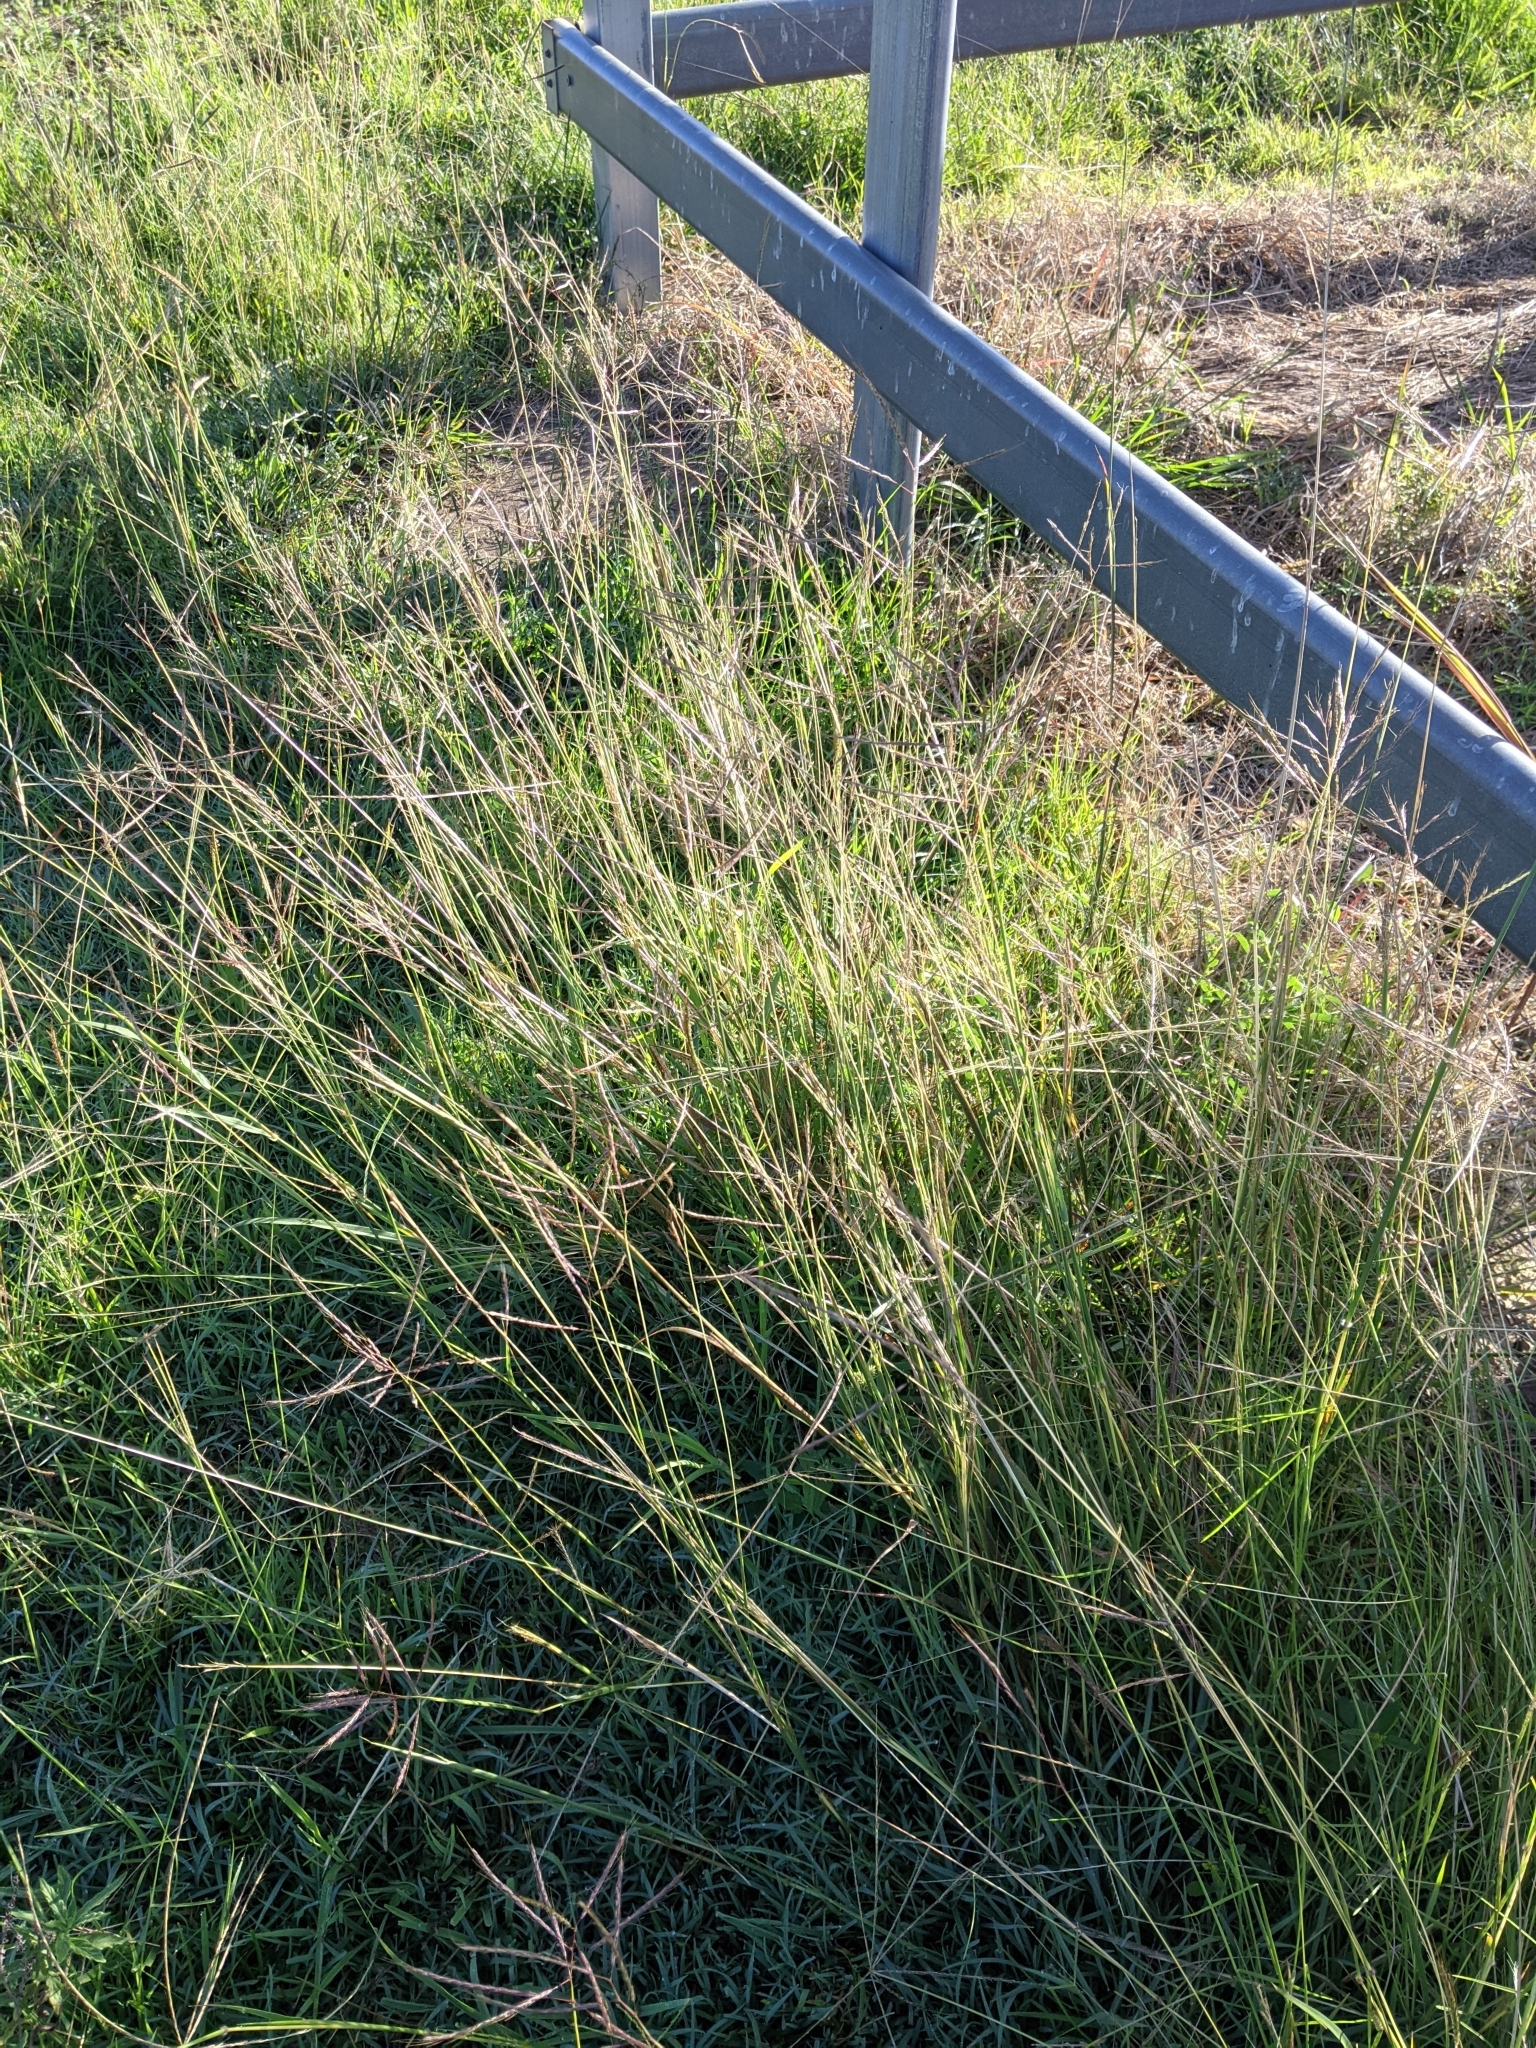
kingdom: Plantae
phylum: Tracheophyta
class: Liliopsida
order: Poales
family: Poaceae
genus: Dichanthium
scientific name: Dichanthium annulatum
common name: Kleberg's bluestem
